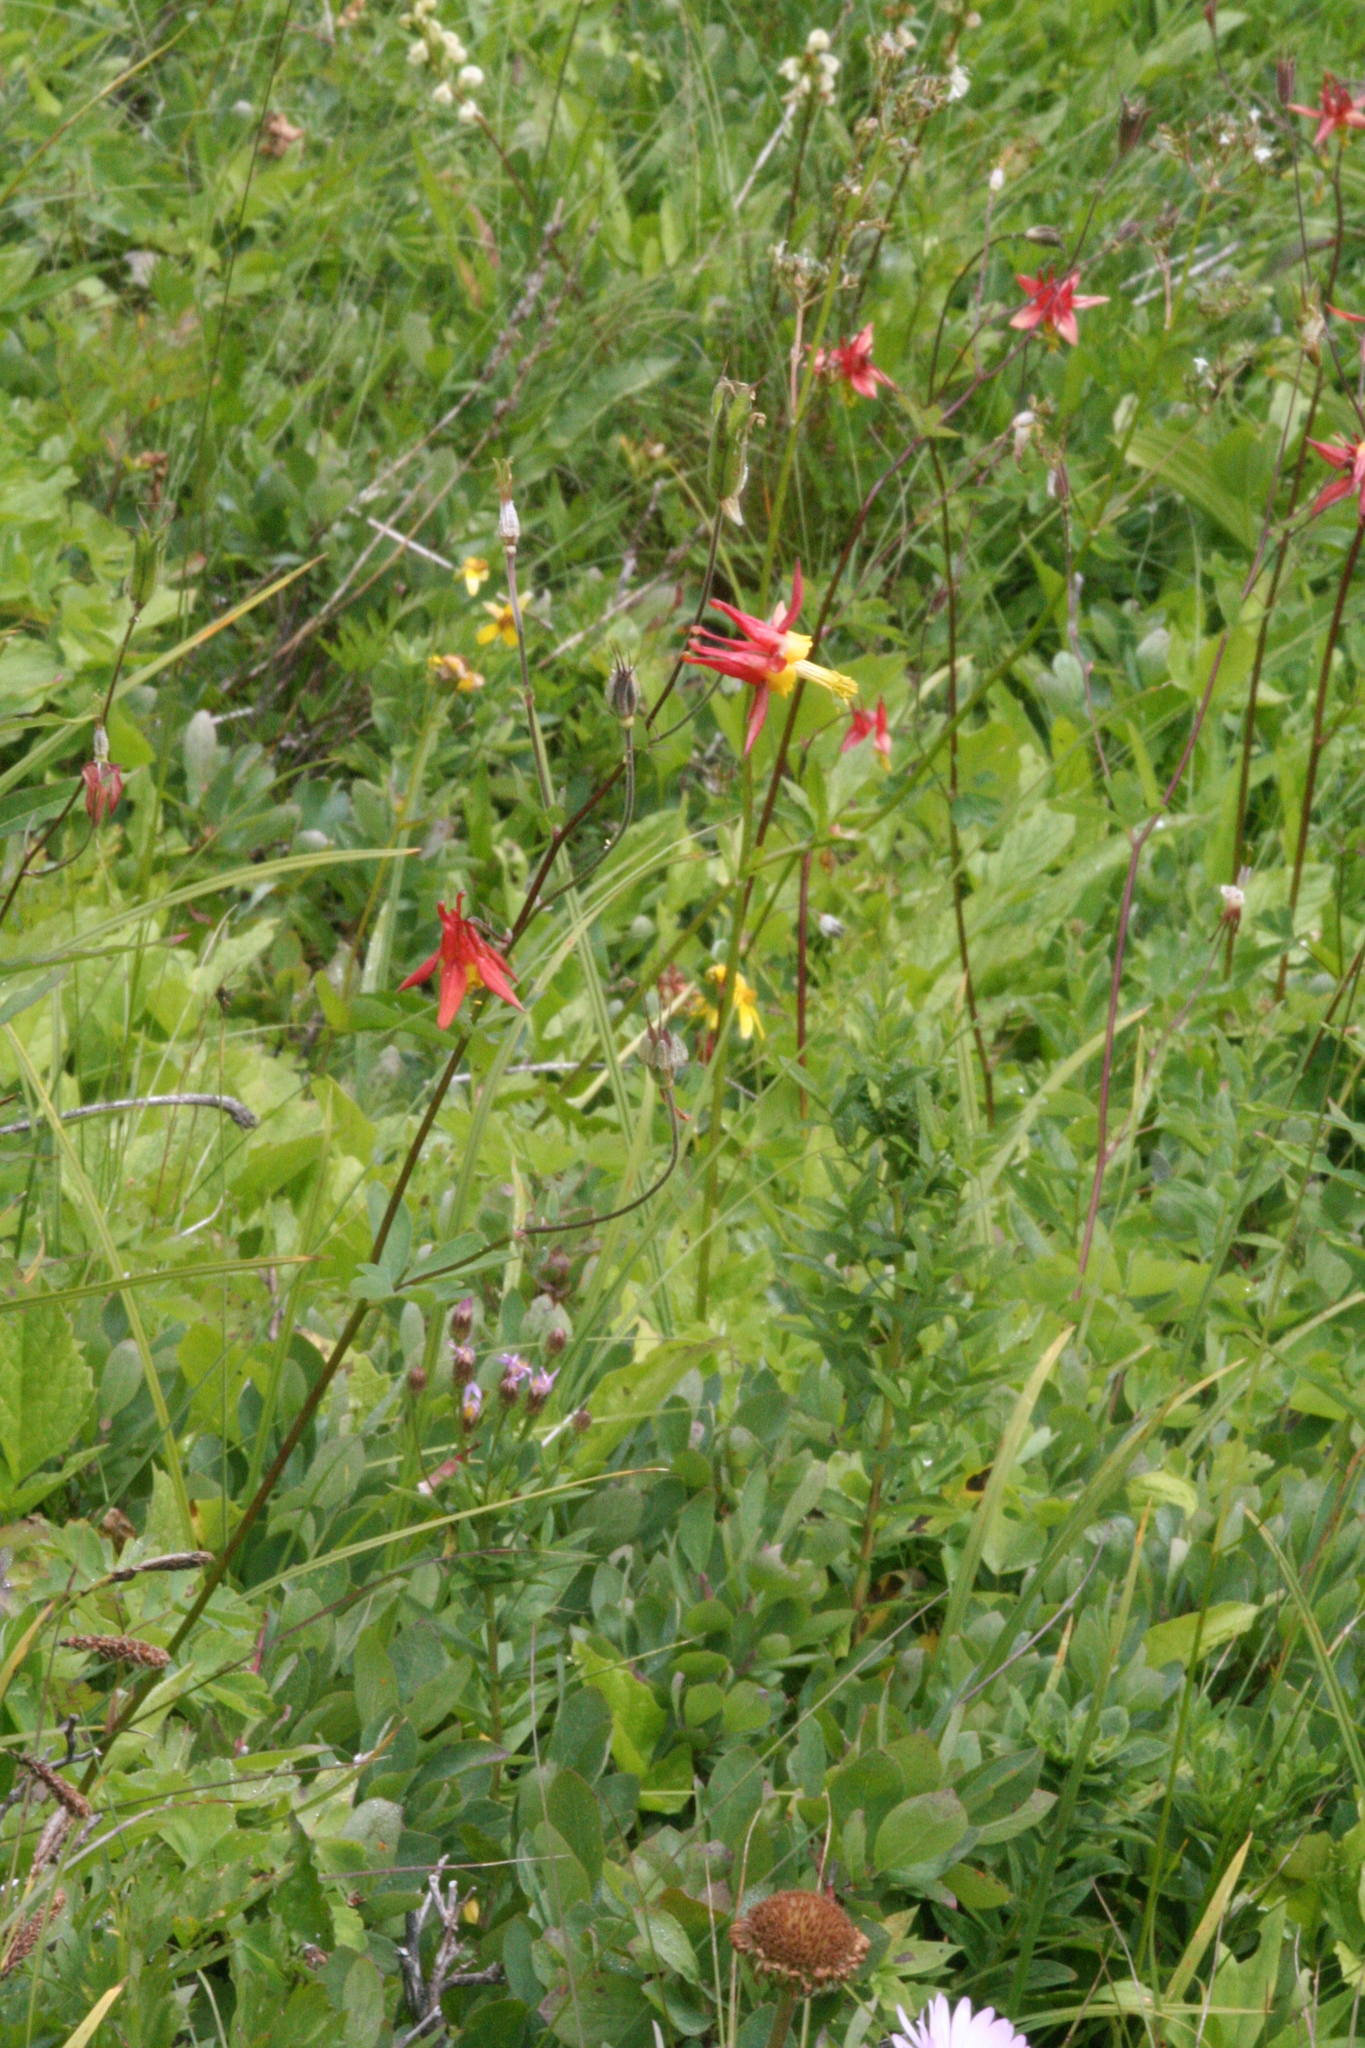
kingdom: Plantae
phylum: Tracheophyta
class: Magnoliopsida
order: Ranunculales
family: Ranunculaceae
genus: Aquilegia
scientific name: Aquilegia formosa
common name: Sitka columbine
